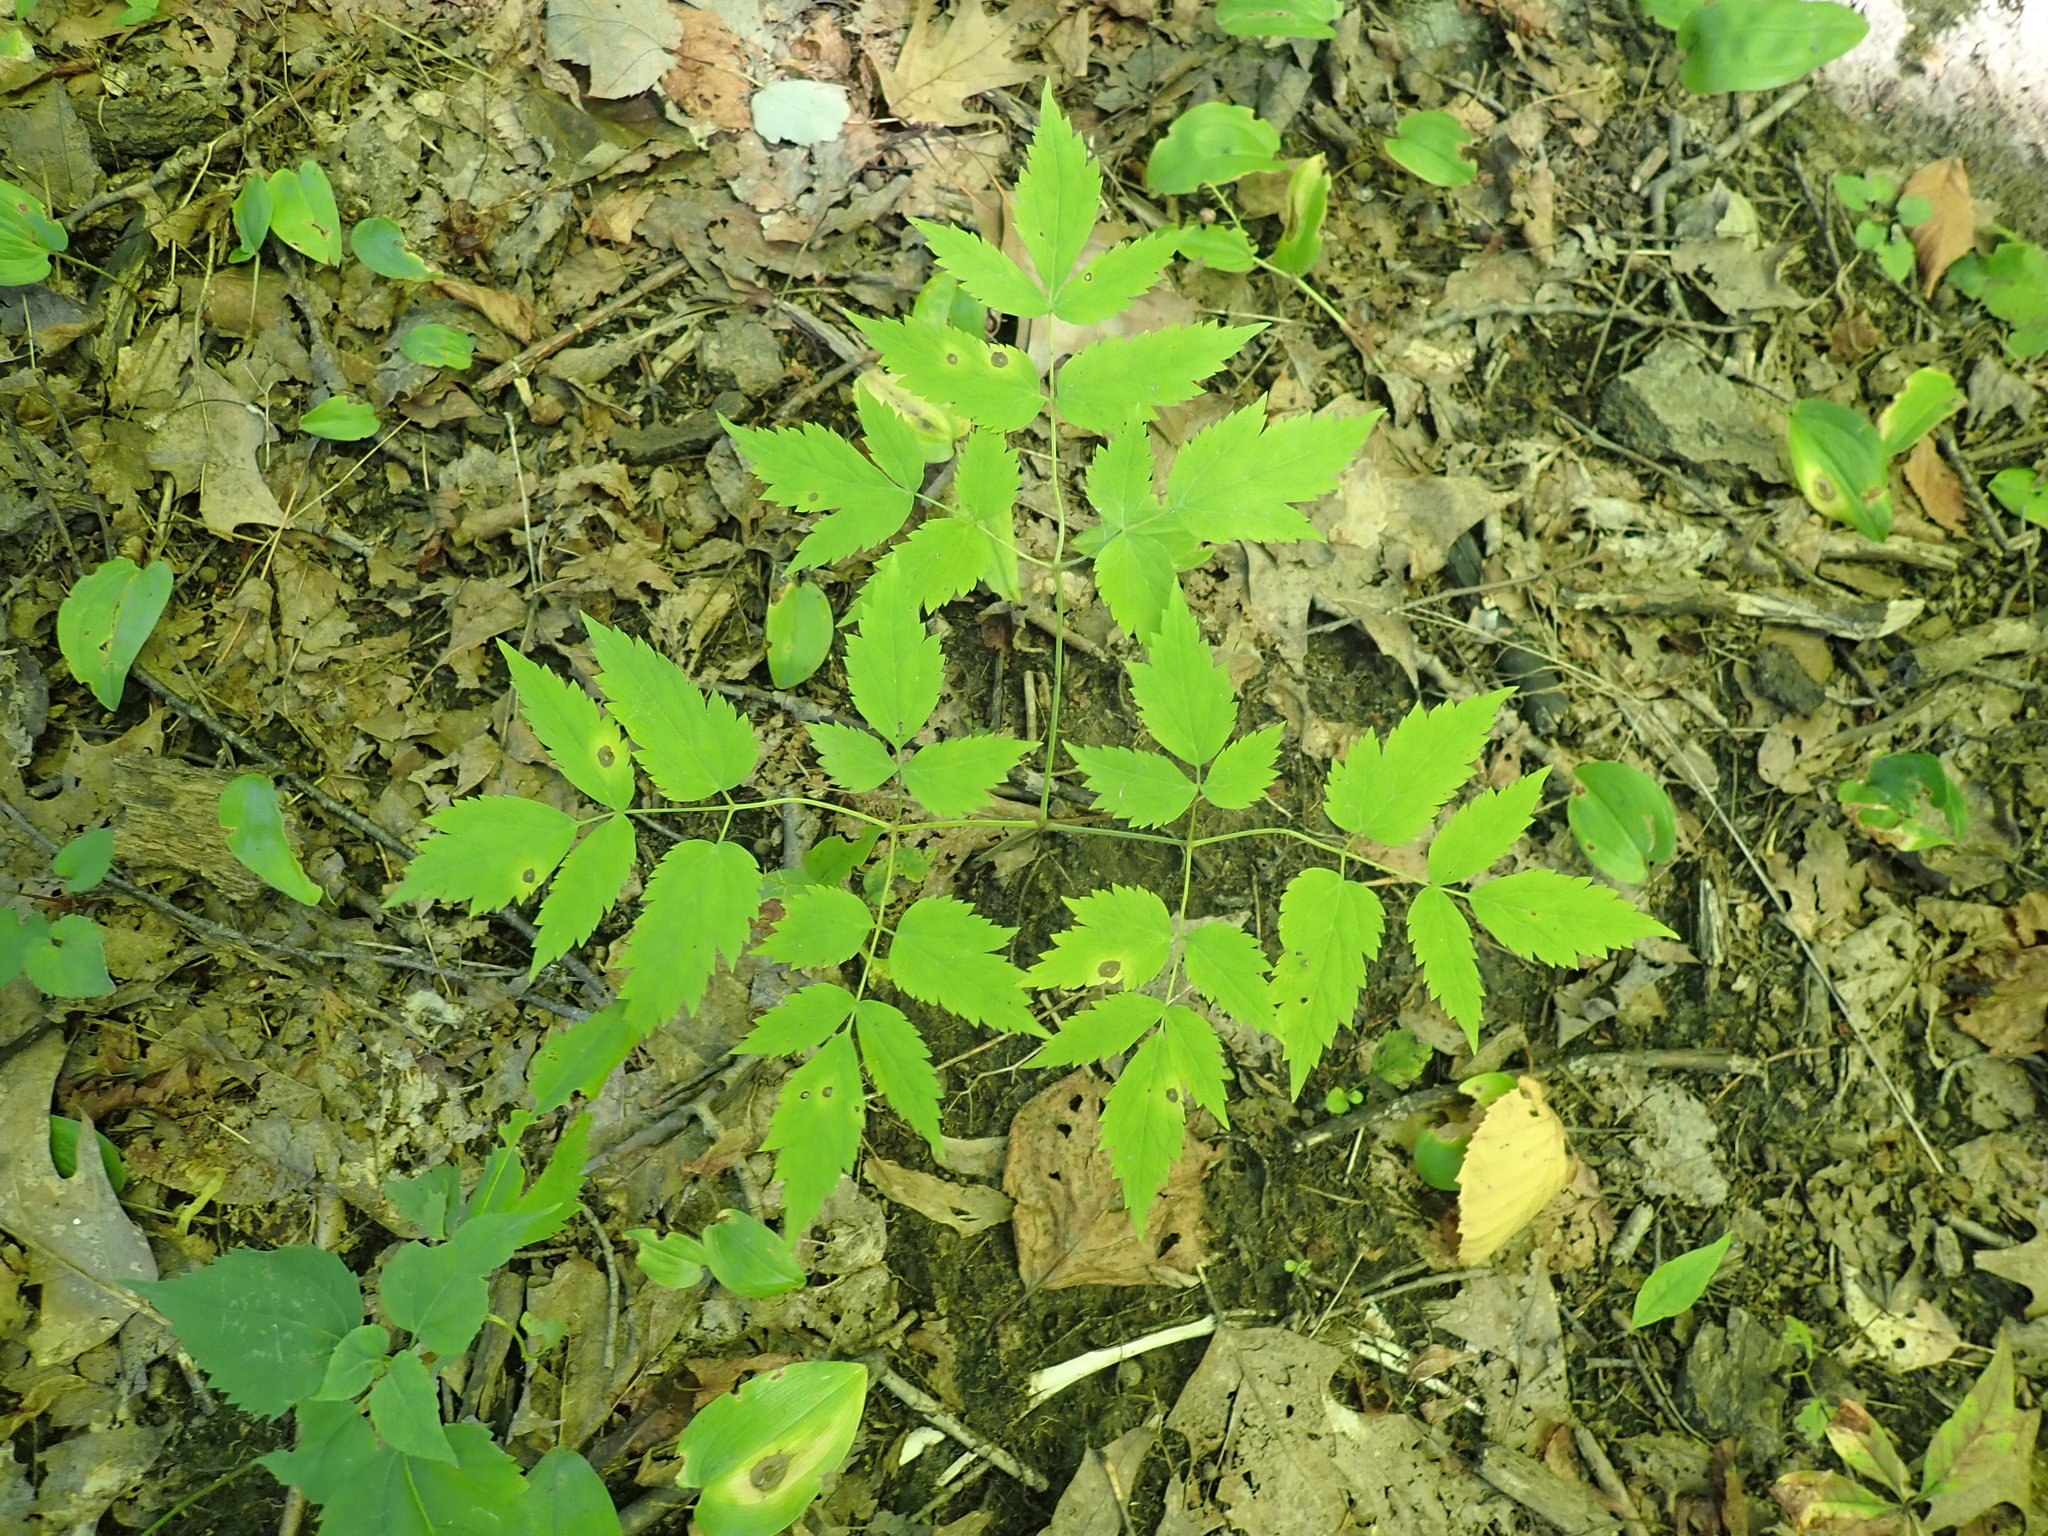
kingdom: Plantae
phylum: Tracheophyta
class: Magnoliopsida
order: Ranunculales
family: Ranunculaceae
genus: Actaea
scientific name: Actaea
